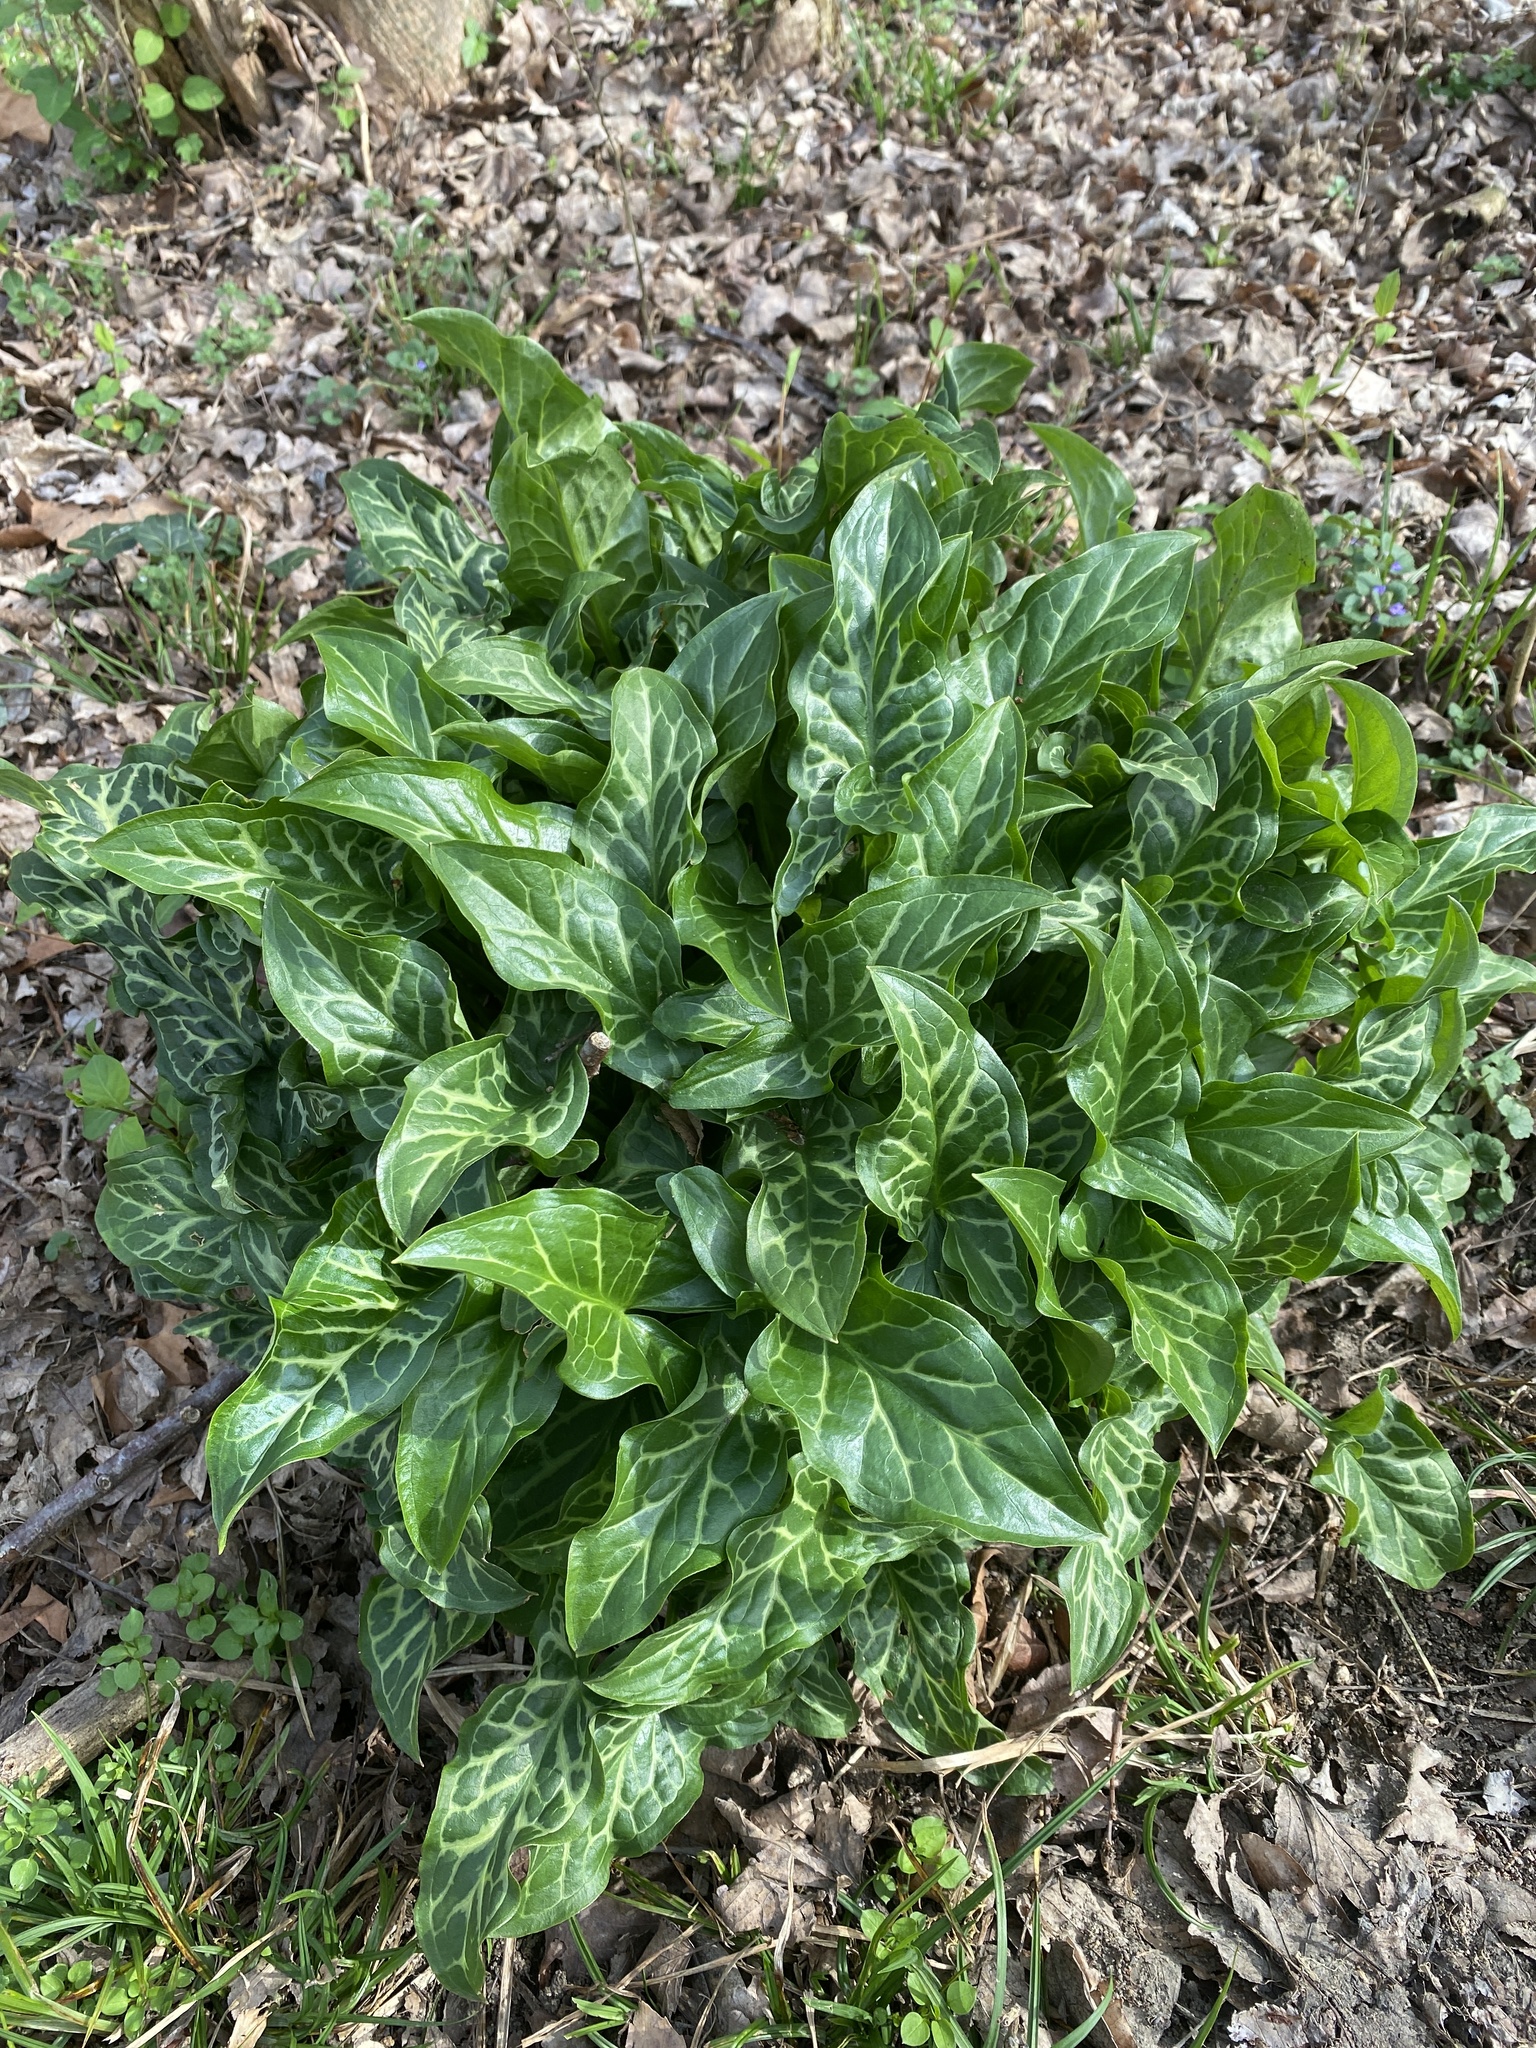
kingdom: Plantae
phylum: Tracheophyta
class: Liliopsida
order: Alismatales
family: Araceae
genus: Arum
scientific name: Arum italicum
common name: Italian lords-and-ladies
